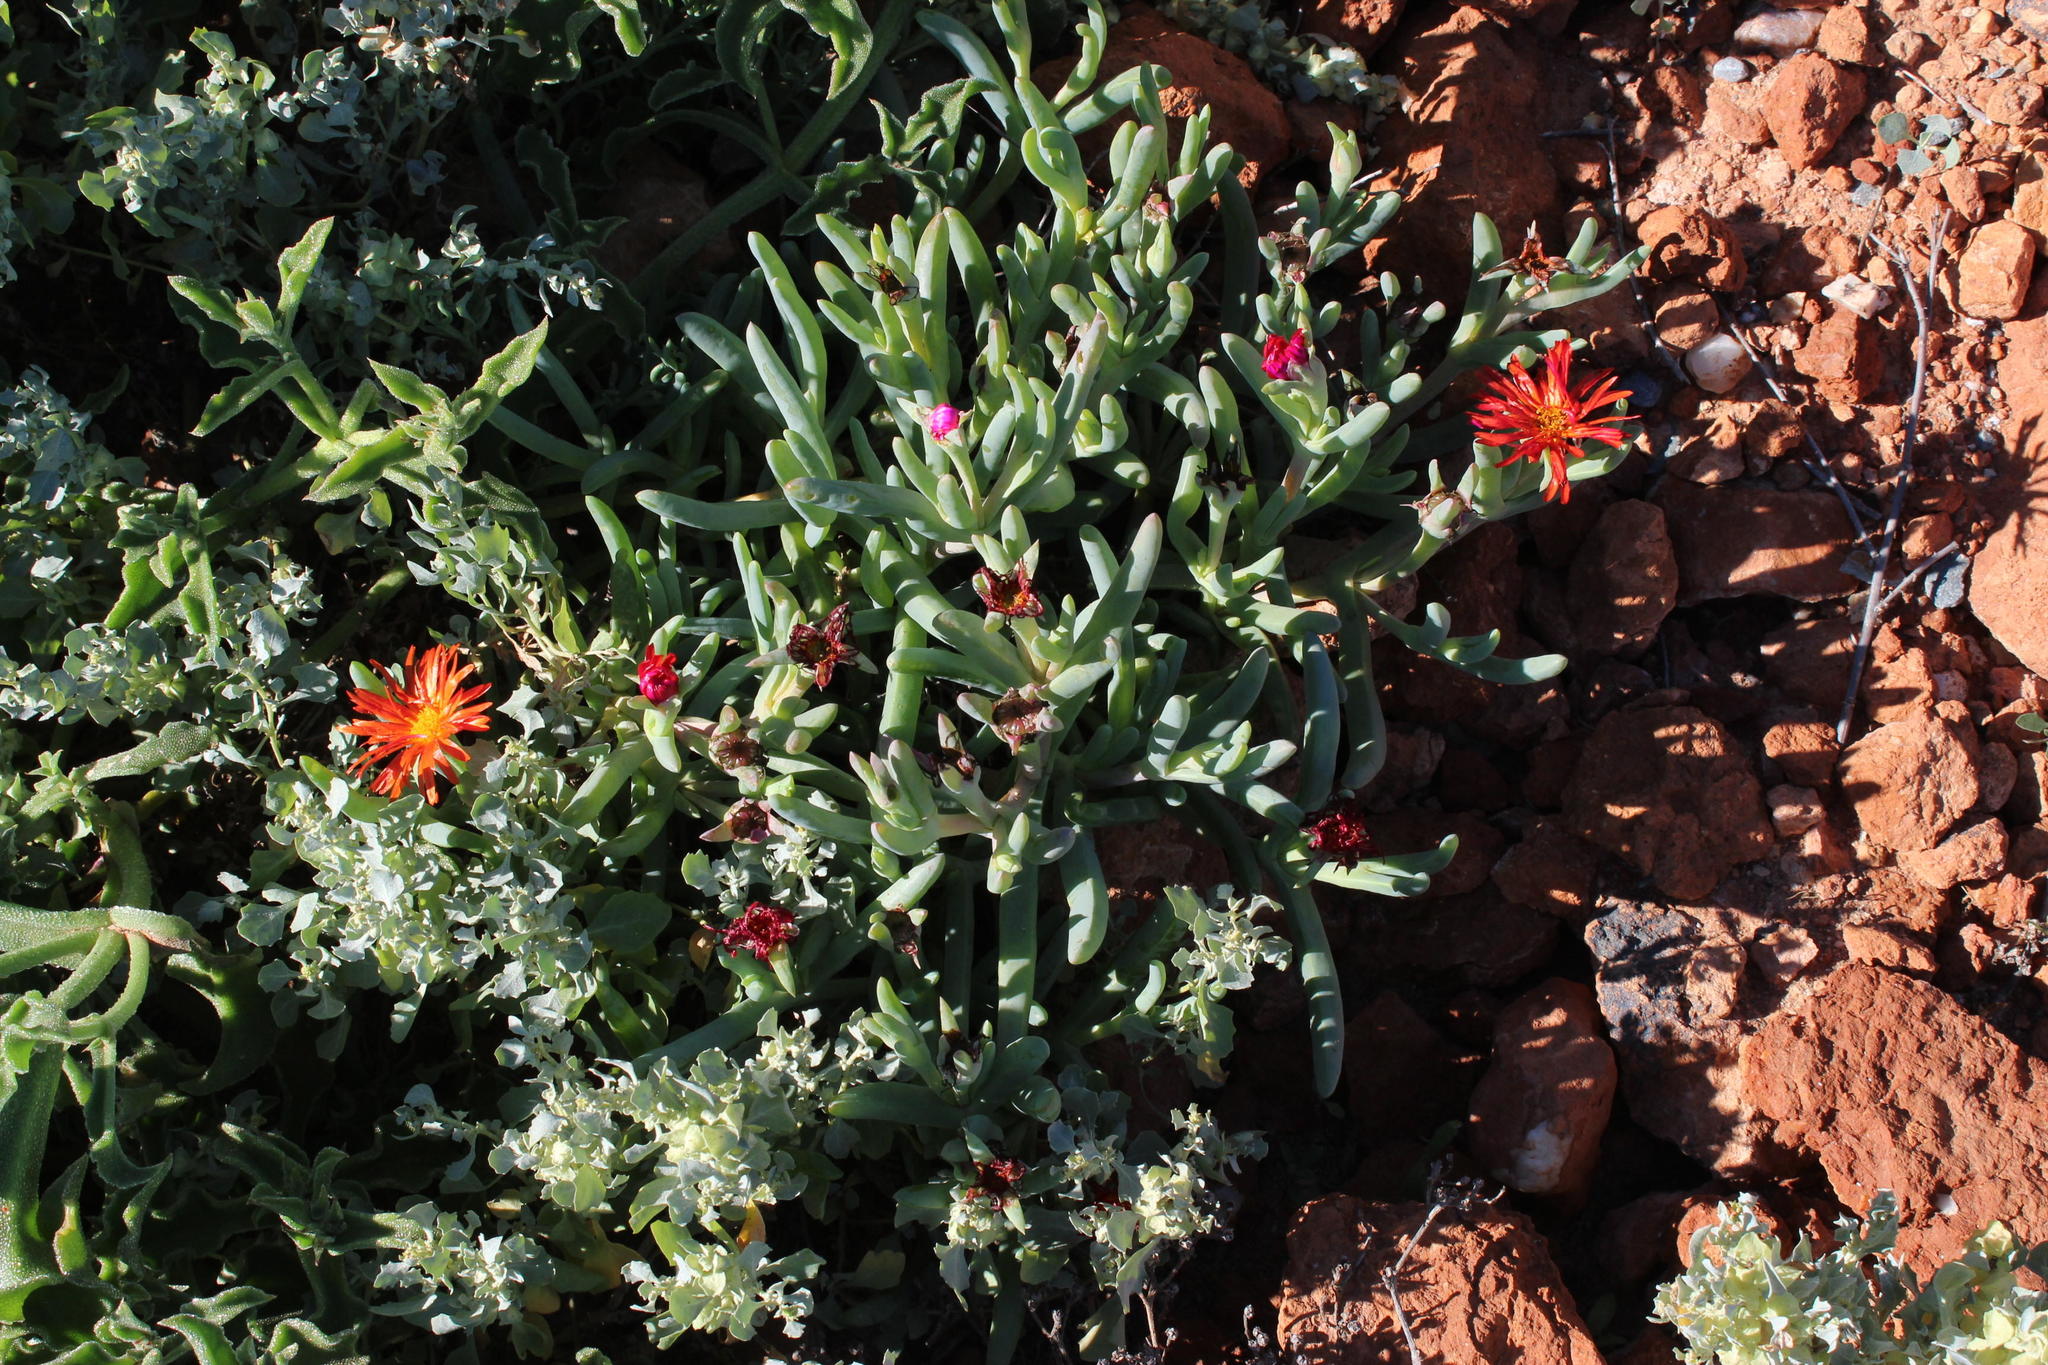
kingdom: Plantae
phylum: Tracheophyta
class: Magnoliopsida
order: Caryophyllales
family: Aizoaceae
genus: Malephora
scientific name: Malephora purpureocrocea
